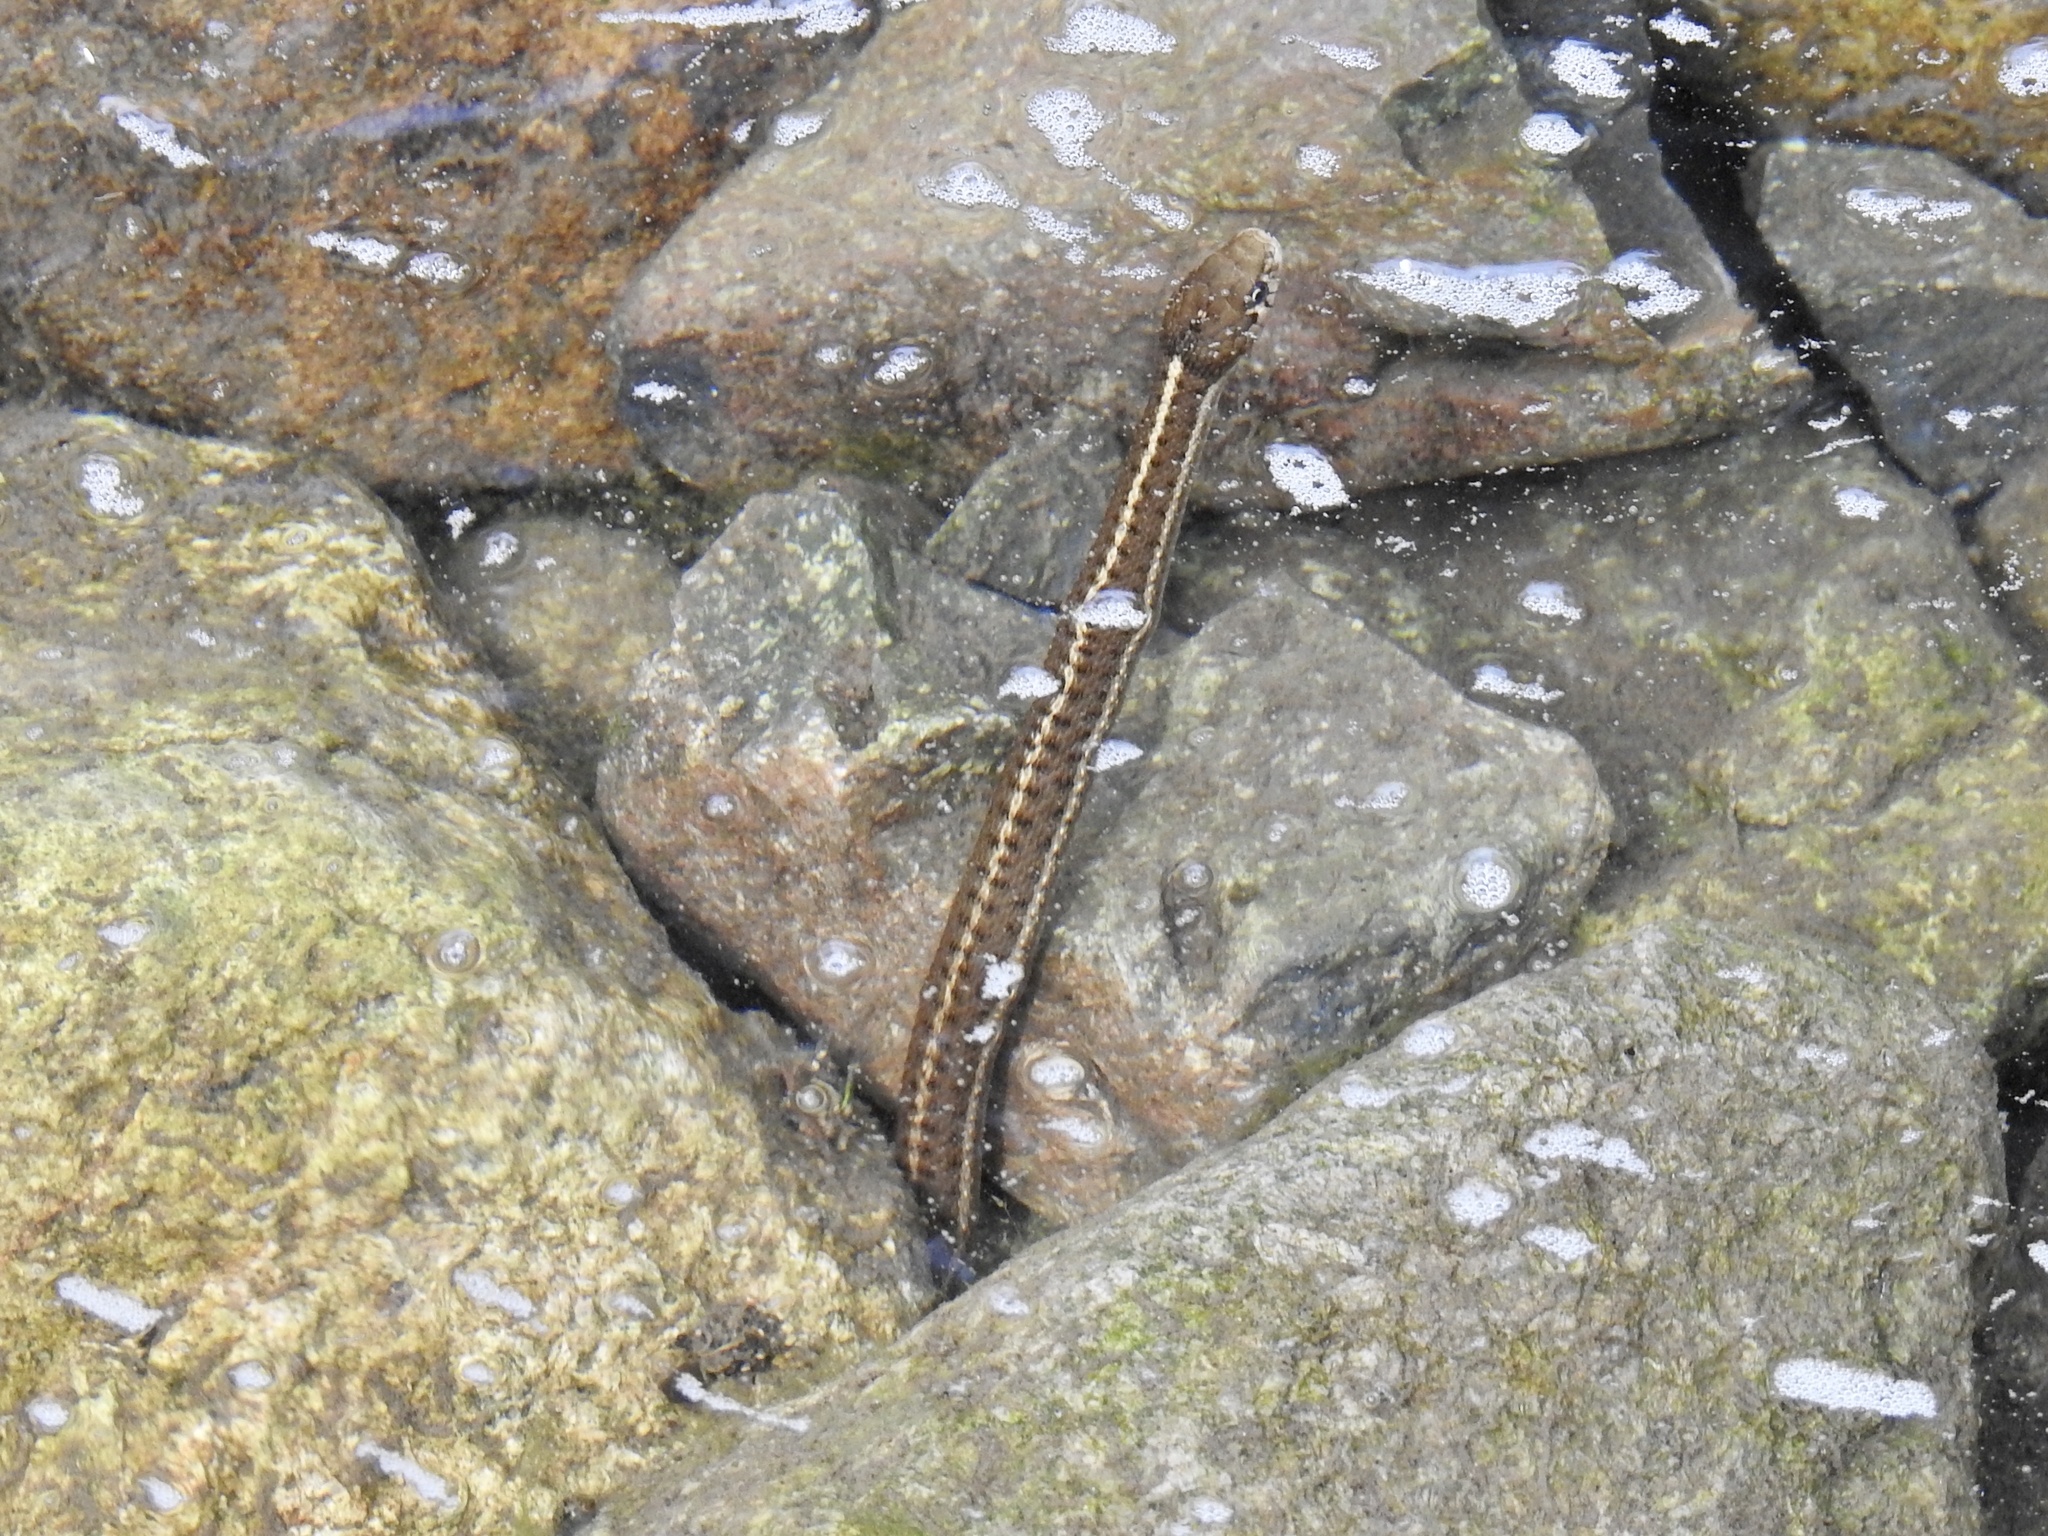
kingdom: Animalia
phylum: Chordata
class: Squamata
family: Colubridae
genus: Thamnophis
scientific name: Thamnophis elegans
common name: Western terrestrial garter snake
